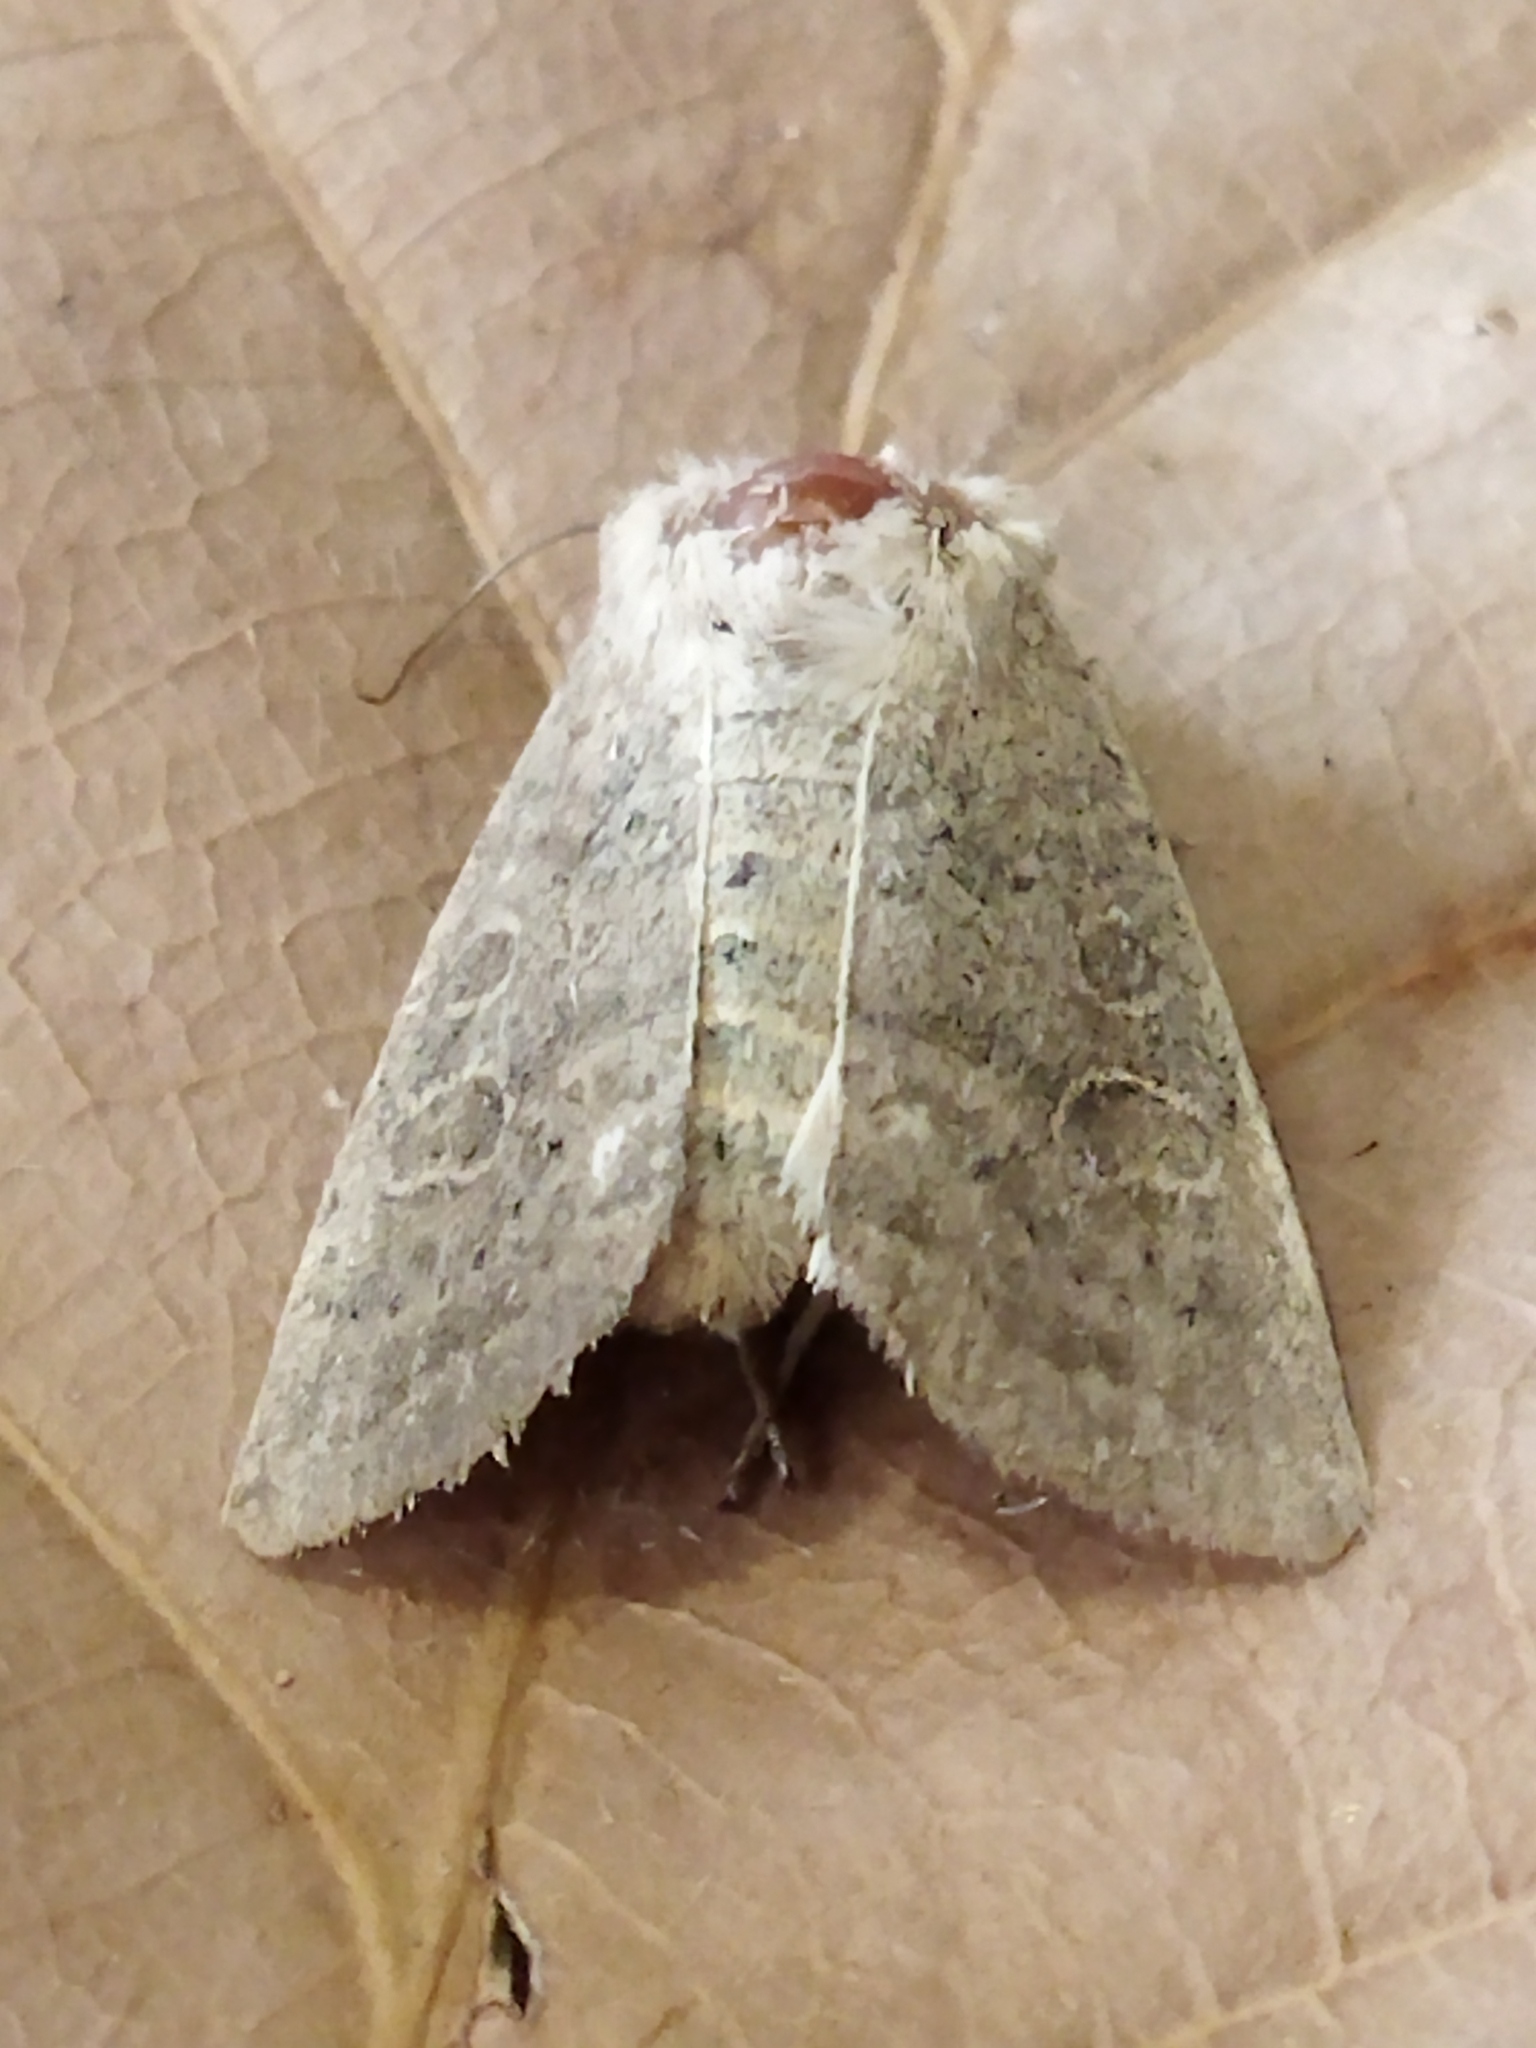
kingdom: Animalia
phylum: Arthropoda
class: Insecta
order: Lepidoptera
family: Noctuidae
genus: Hoplodrina
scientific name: Hoplodrina ambigua
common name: Vine's rustic
